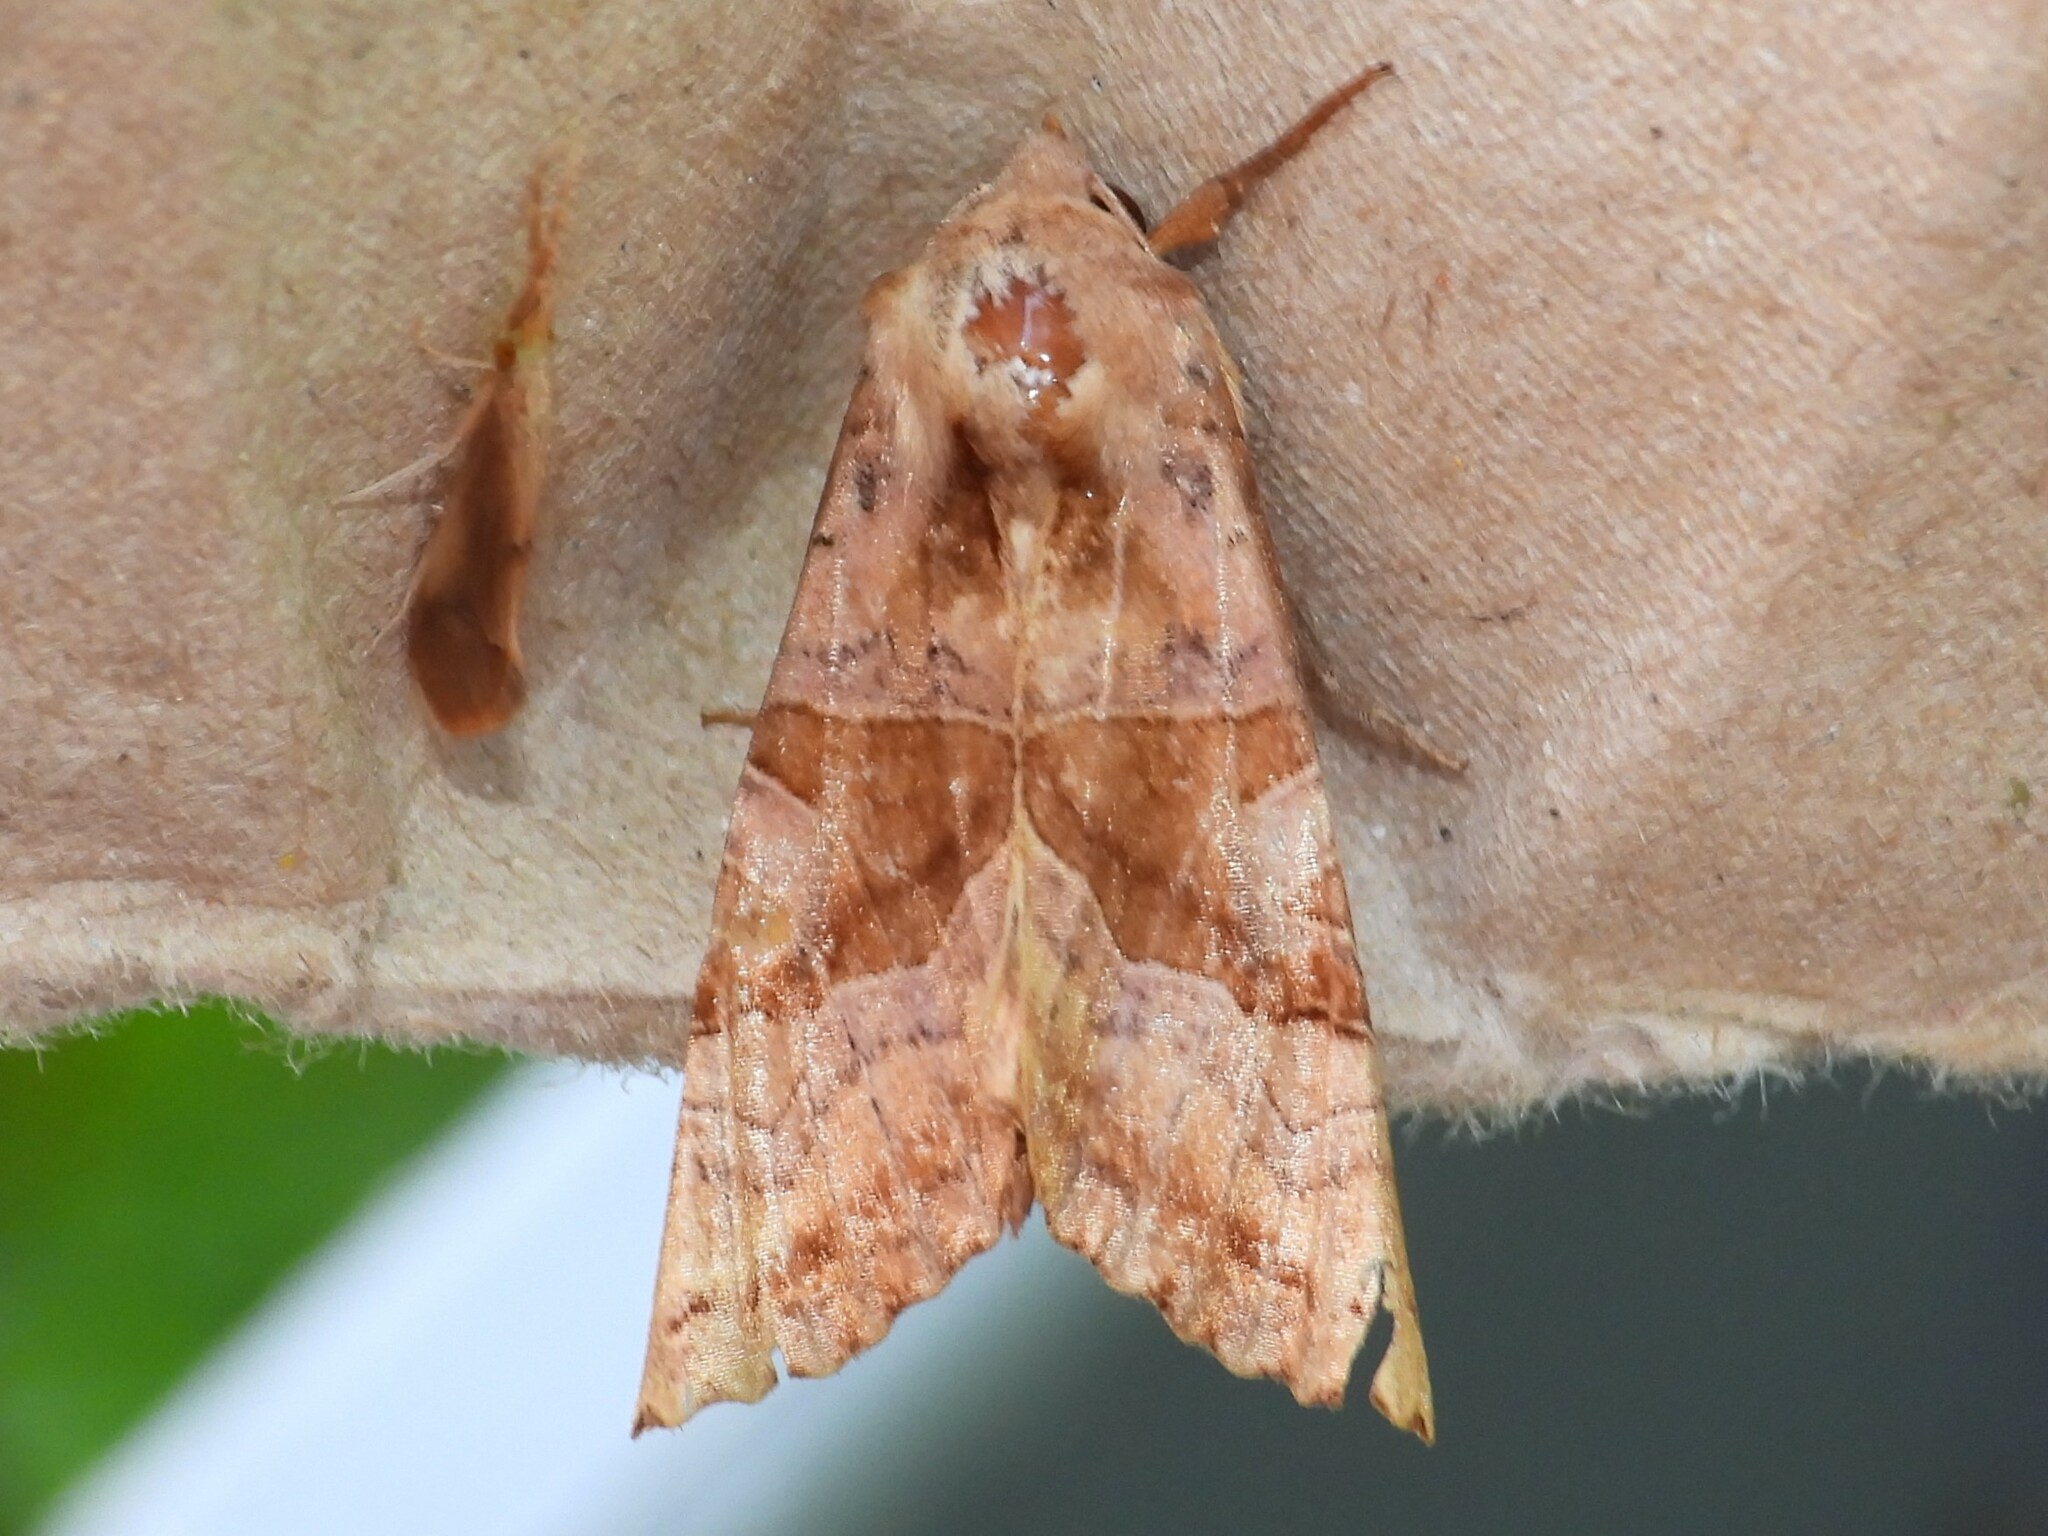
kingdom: Animalia
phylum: Arthropoda
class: Insecta
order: Lepidoptera
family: Noctuidae
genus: Phlogophora
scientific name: Phlogophora periculosa
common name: Brown angle shades
